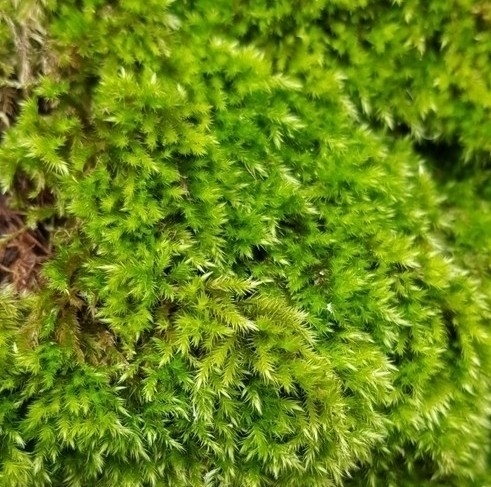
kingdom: Plantae
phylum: Bryophyta
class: Bryopsida
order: Hypnales
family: Brachytheciaceae
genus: Homalothecium
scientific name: Homalothecium sericeum
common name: Silky wall feather-moss
